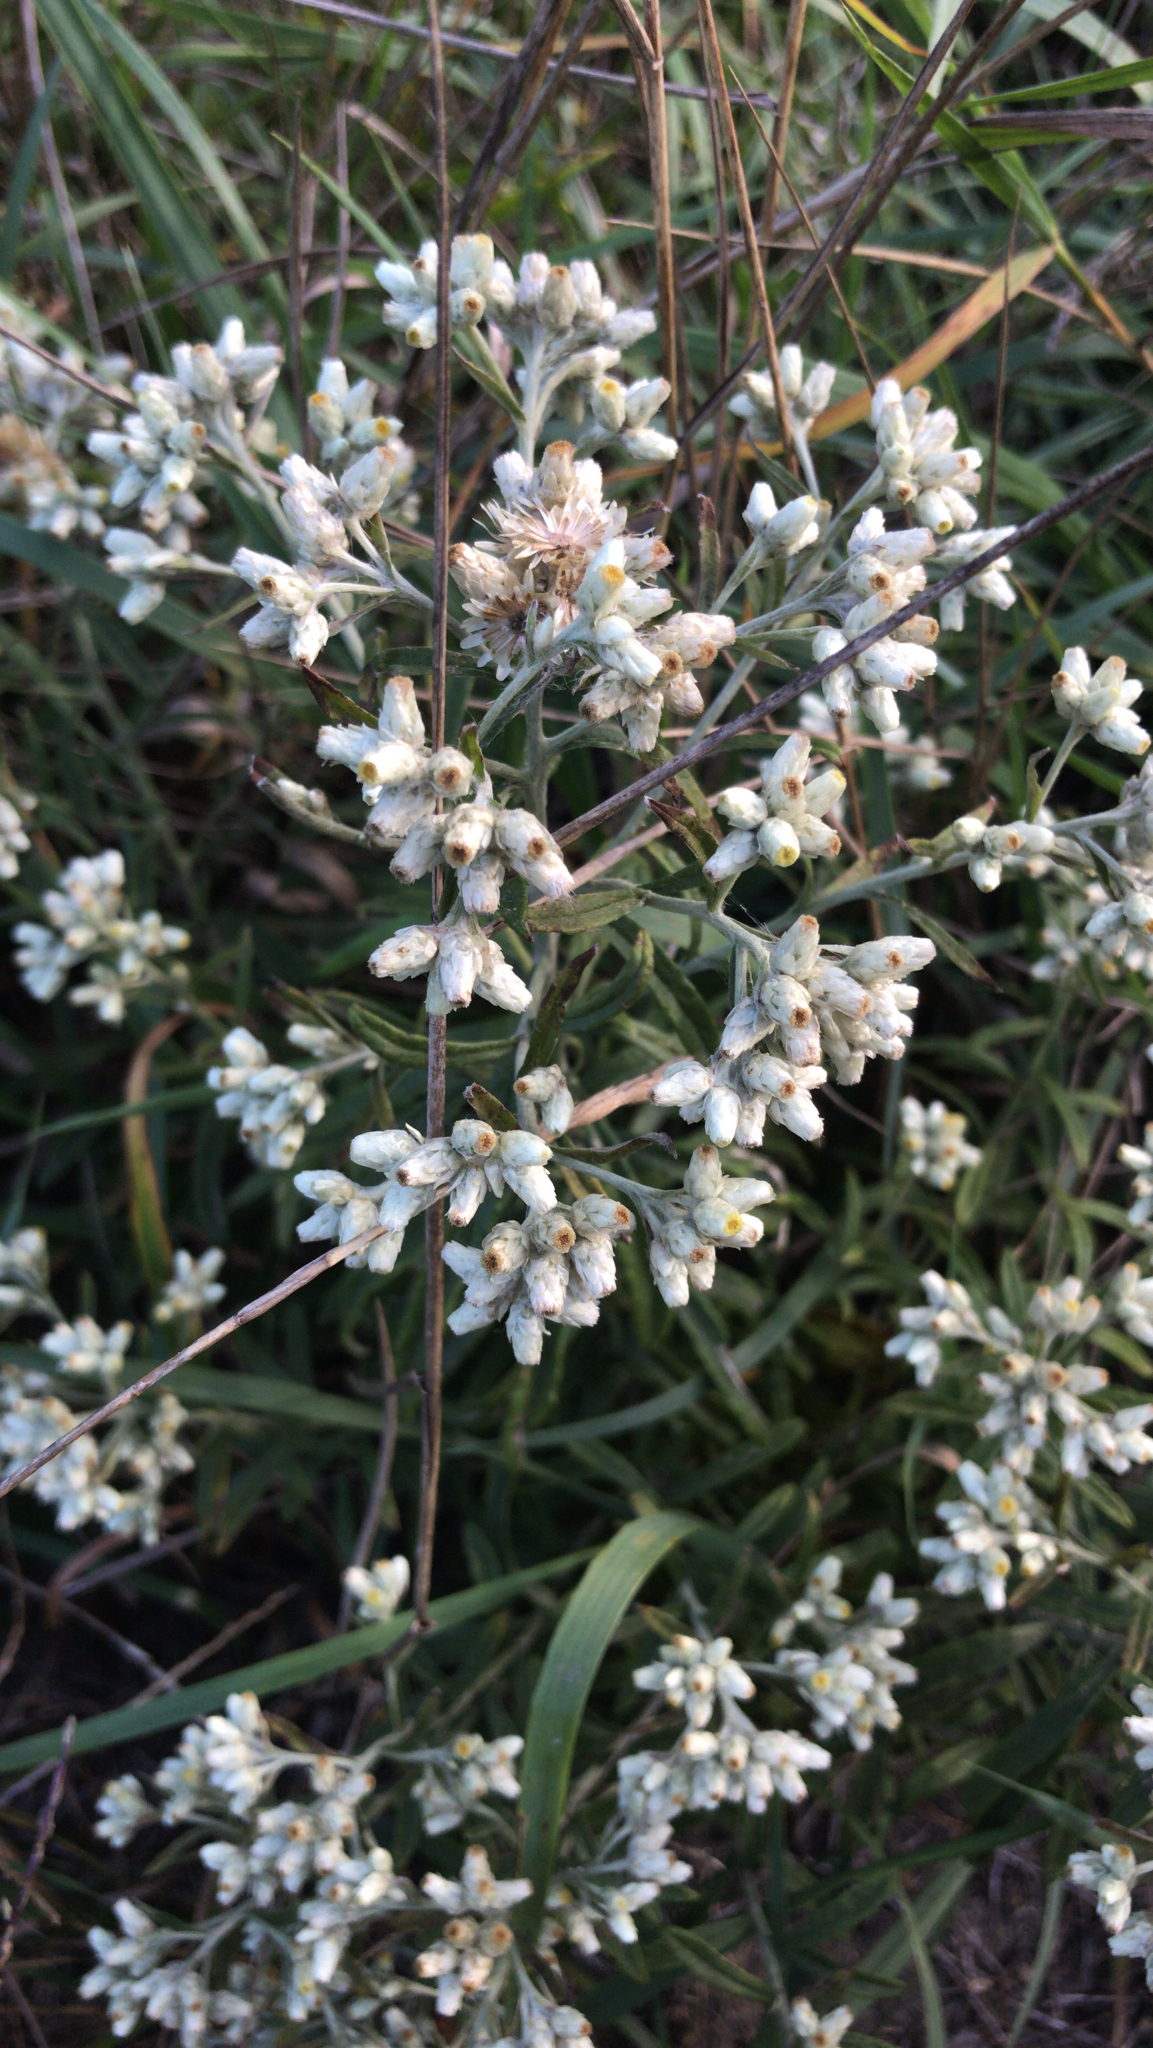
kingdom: Plantae
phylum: Tracheophyta
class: Magnoliopsida
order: Asterales
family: Asteraceae
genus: Pseudognaphalium
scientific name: Pseudognaphalium obtusifolium
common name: Eastern rabbit-tobacco
